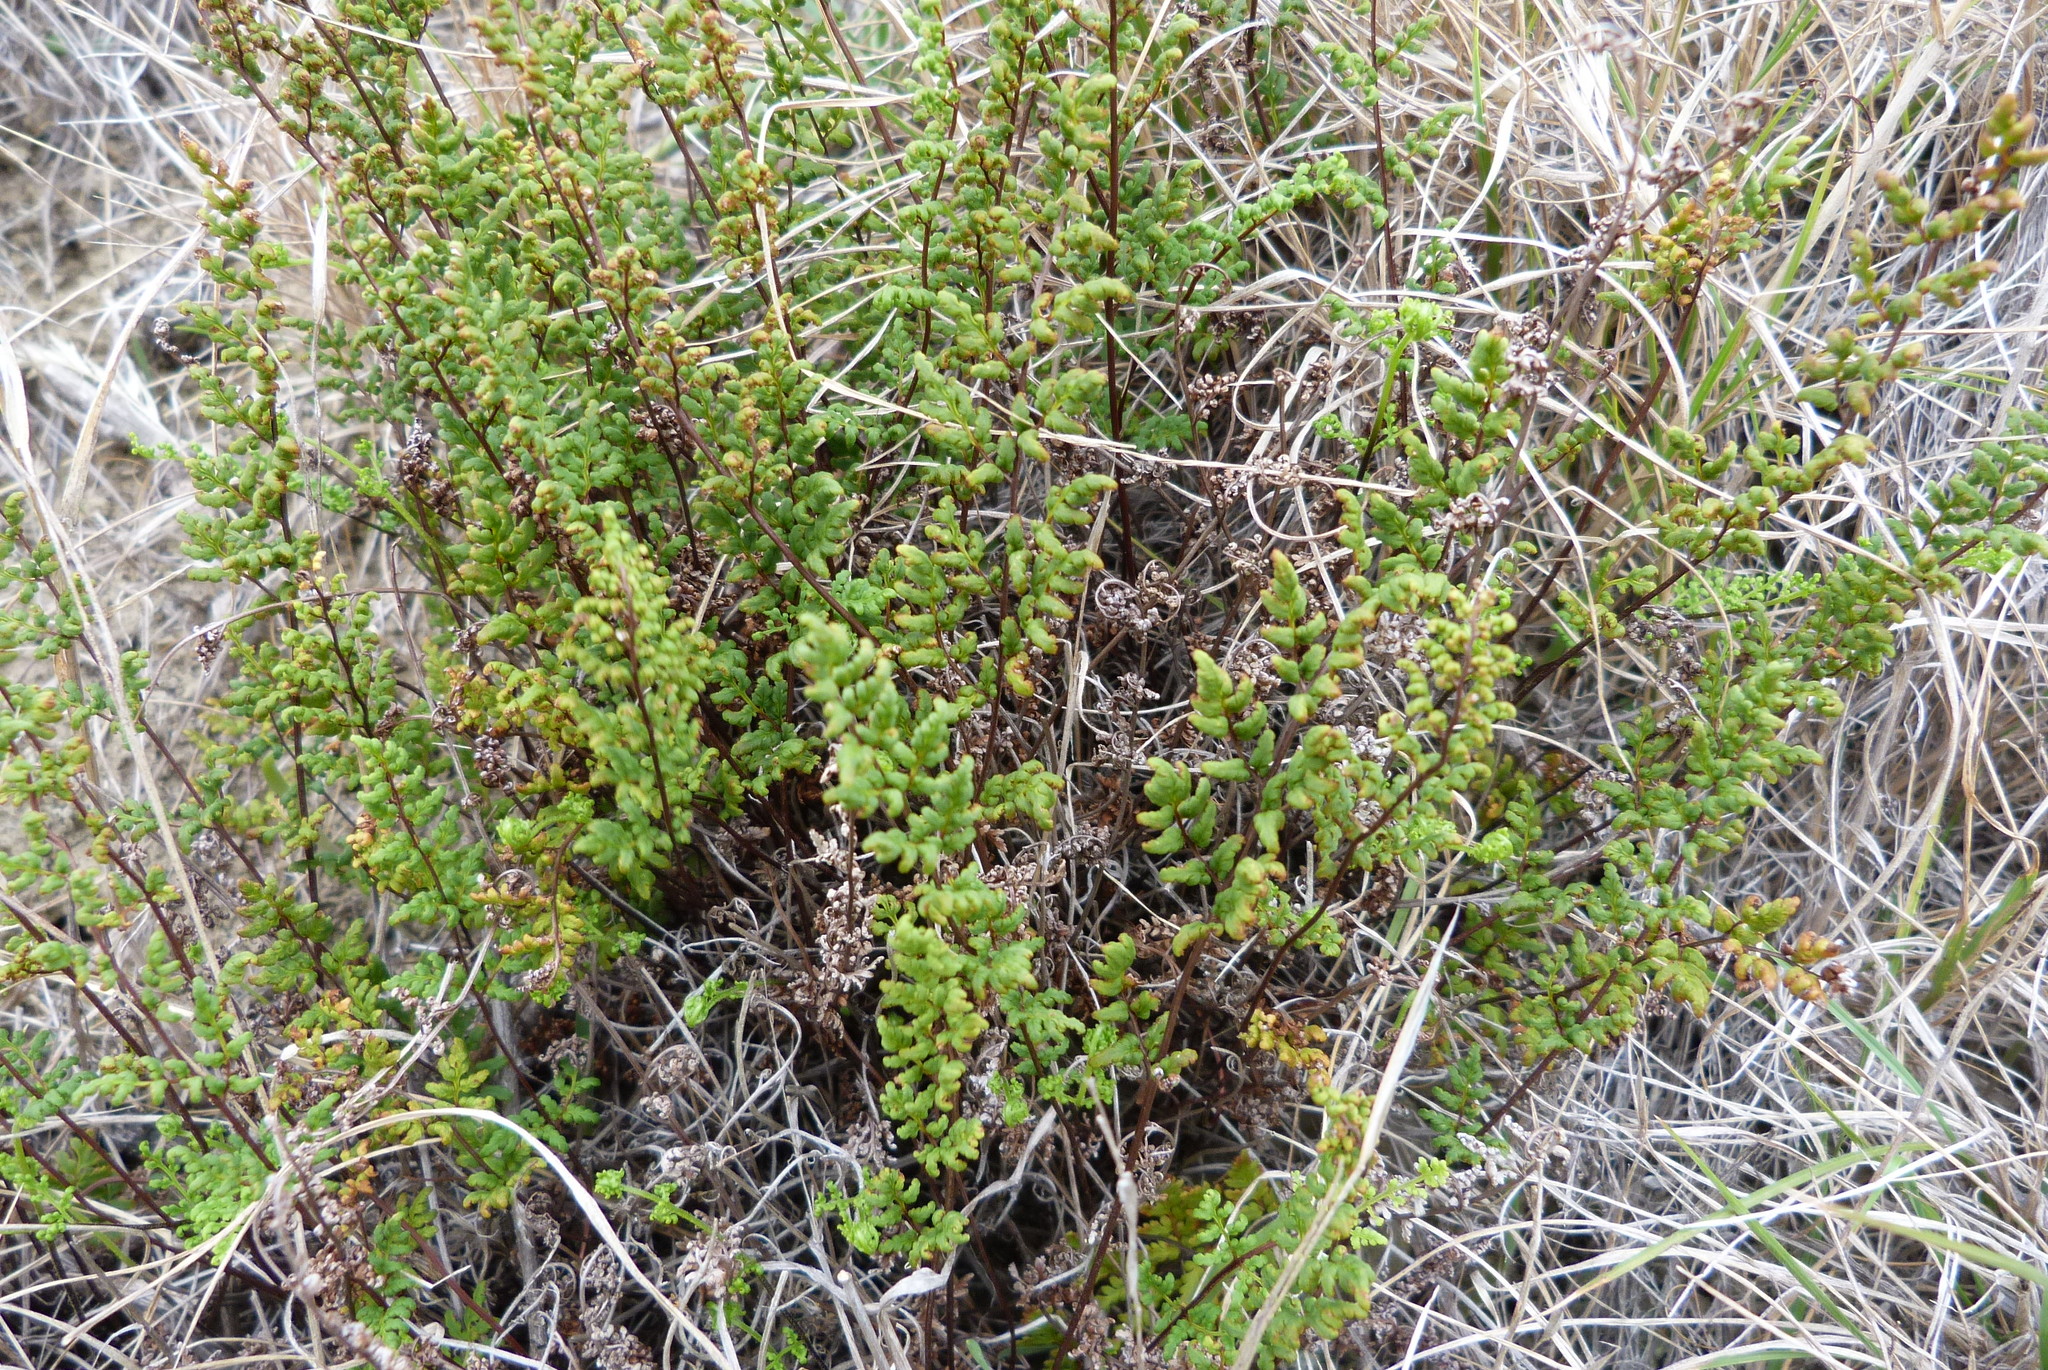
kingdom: Plantae
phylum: Tracheophyta
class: Polypodiopsida
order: Polypodiales
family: Pteridaceae
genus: Cheilanthes
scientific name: Cheilanthes sieberi
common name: Mulga fern
